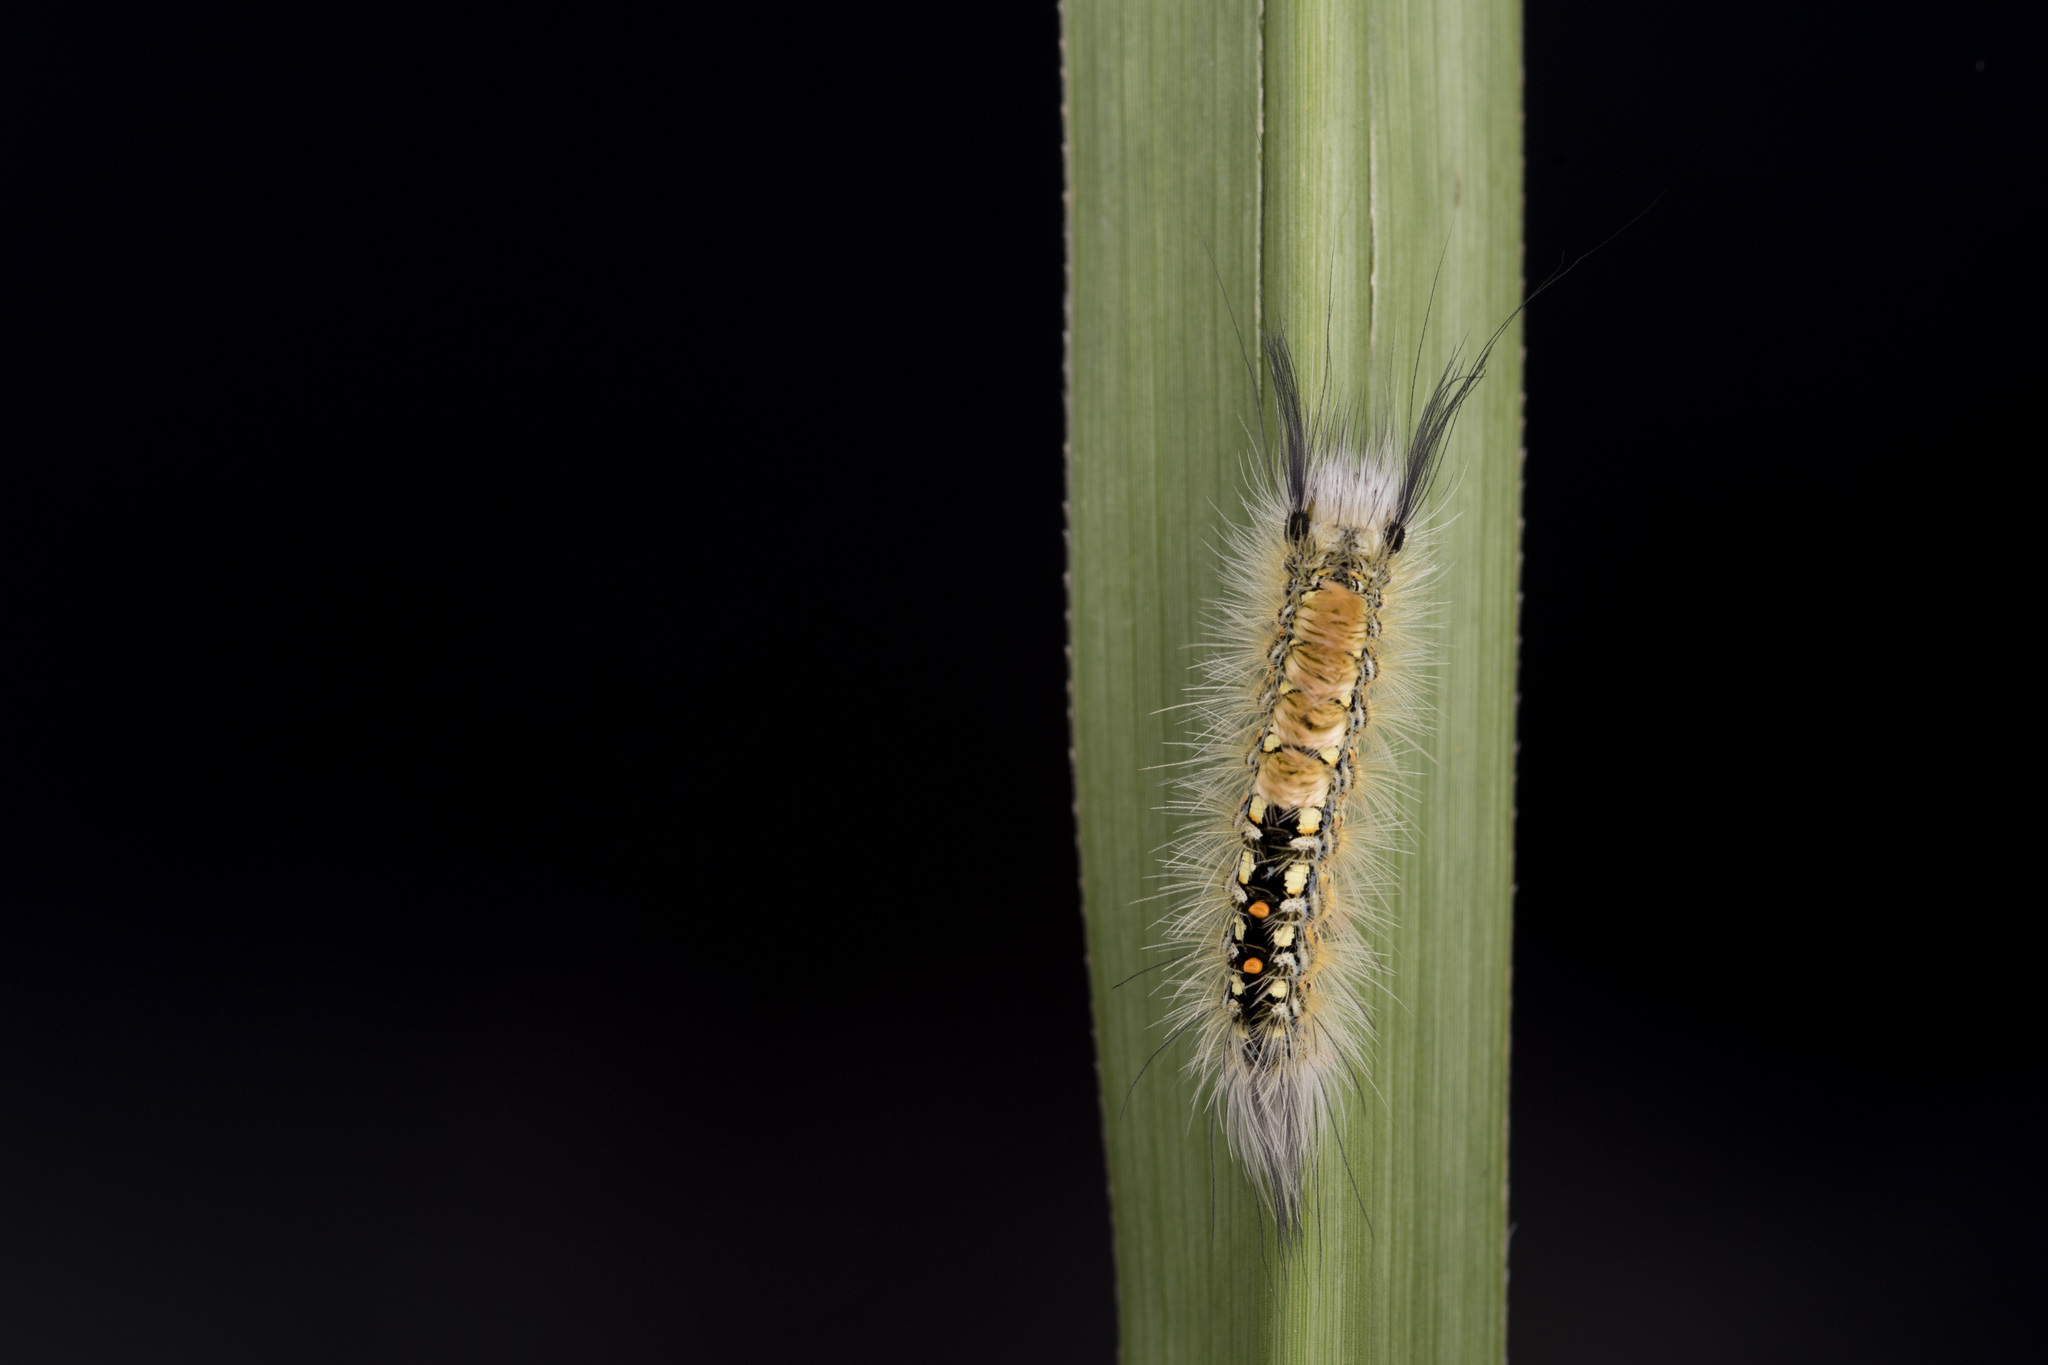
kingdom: Animalia
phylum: Arthropoda
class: Insecta
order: Lepidoptera
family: Erebidae
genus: Psalis
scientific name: Psalis pennatula
